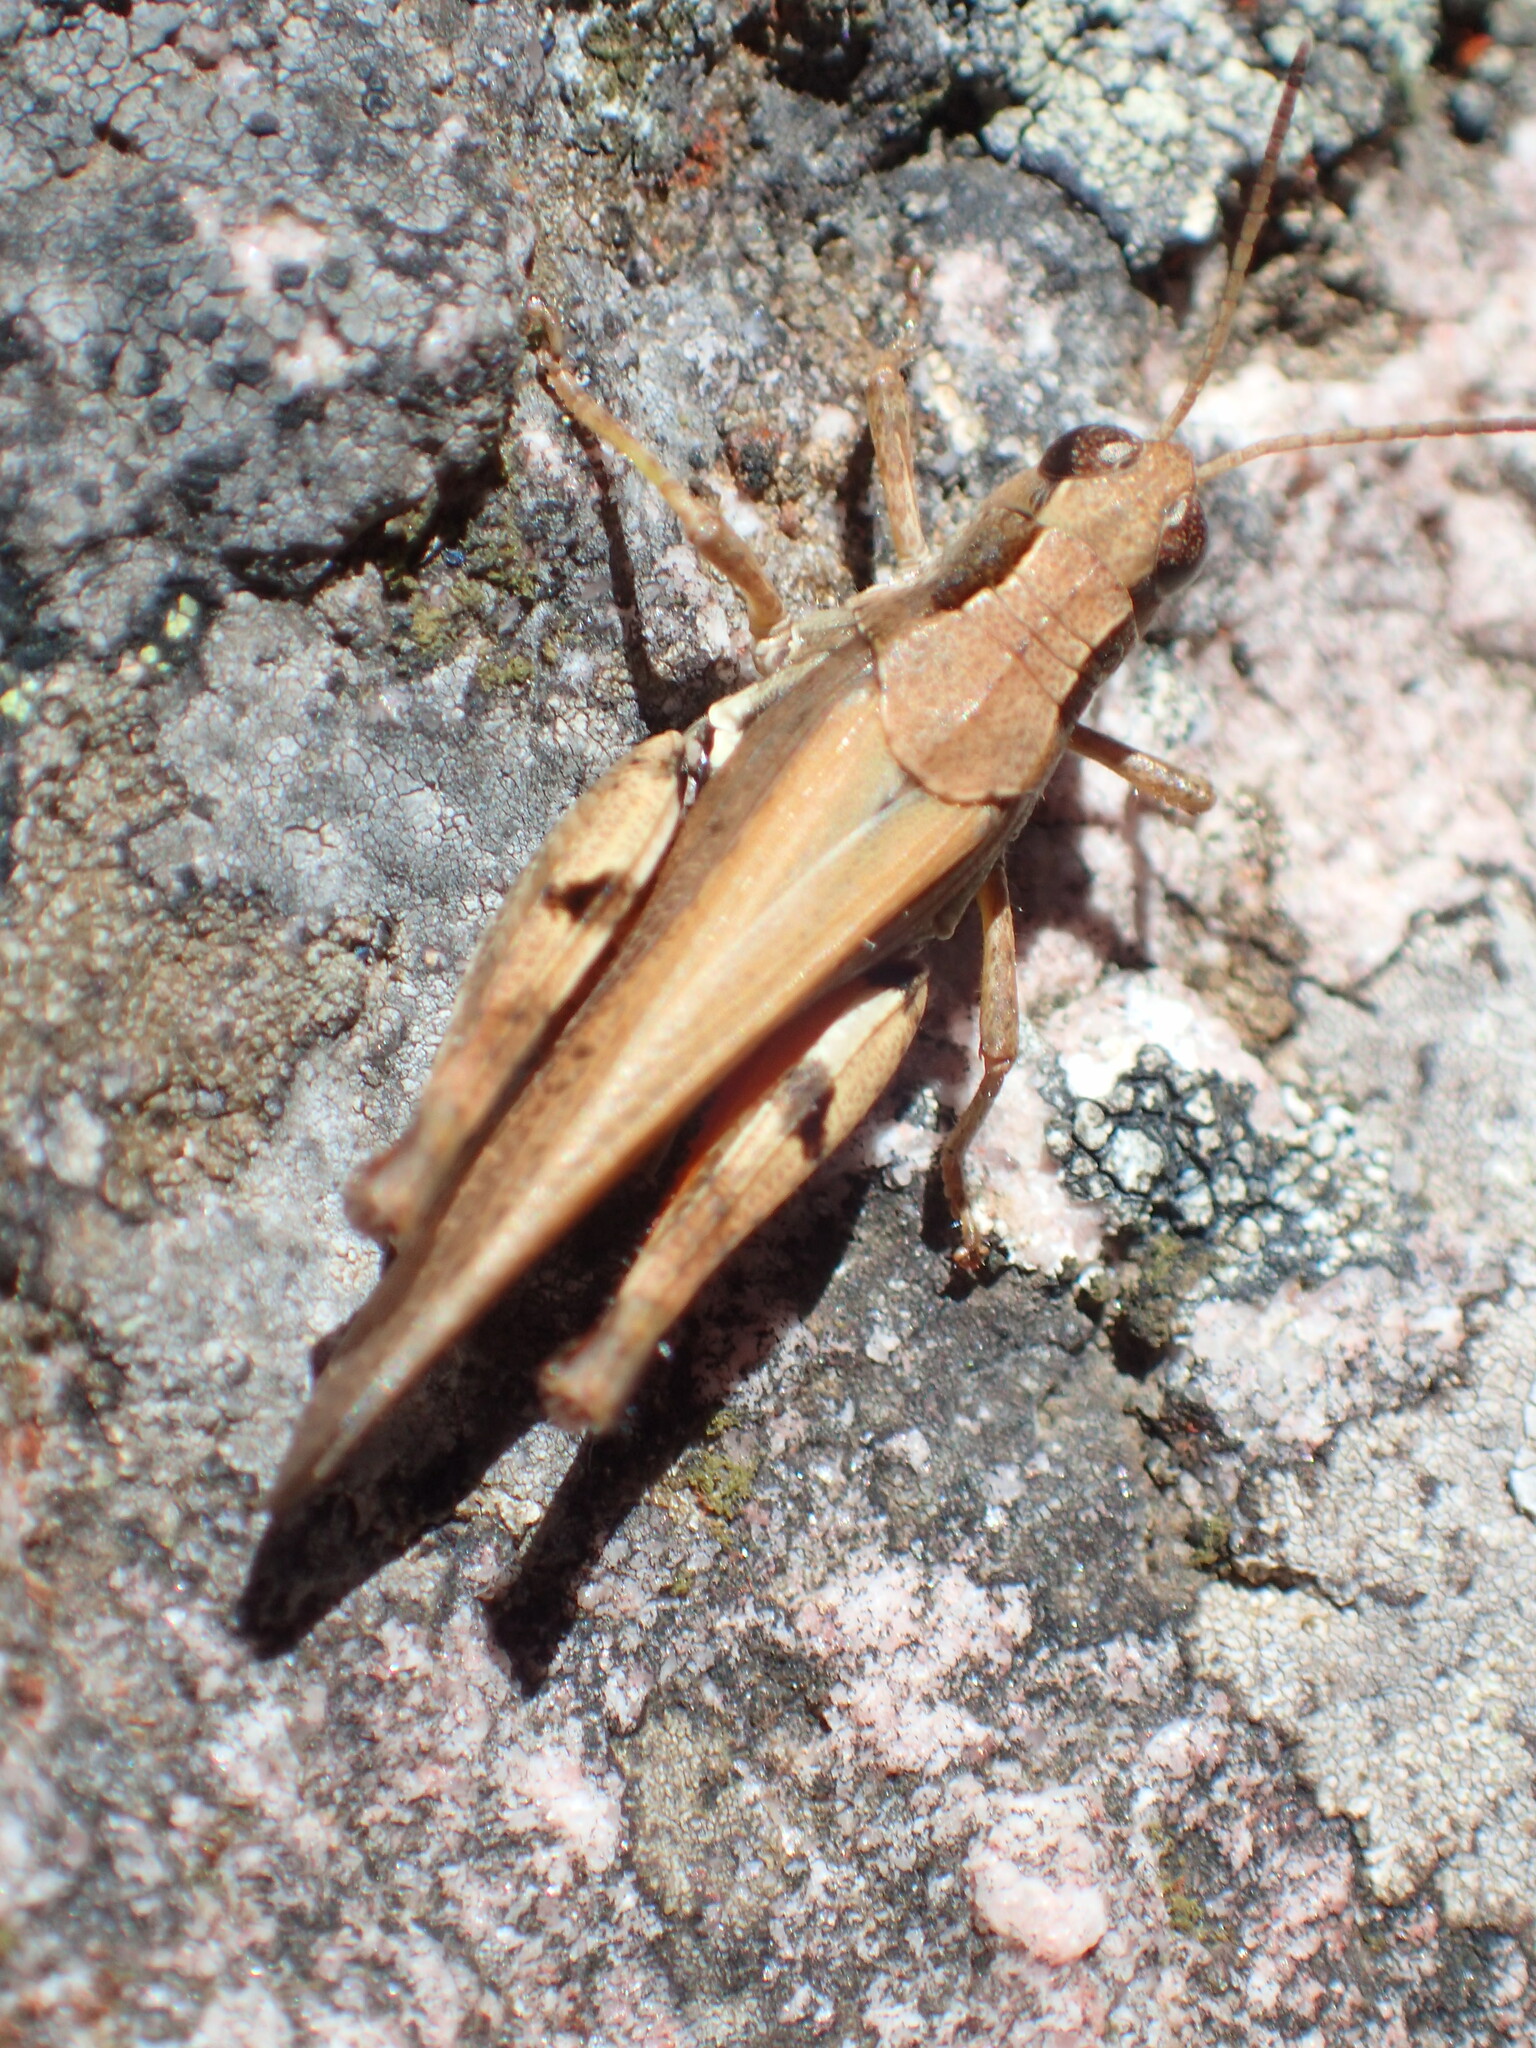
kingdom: Animalia
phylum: Arthropoda
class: Insecta
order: Orthoptera
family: Acrididae
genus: Phaulacridium
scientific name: Phaulacridium vittatum
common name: Wingless grasshopper
